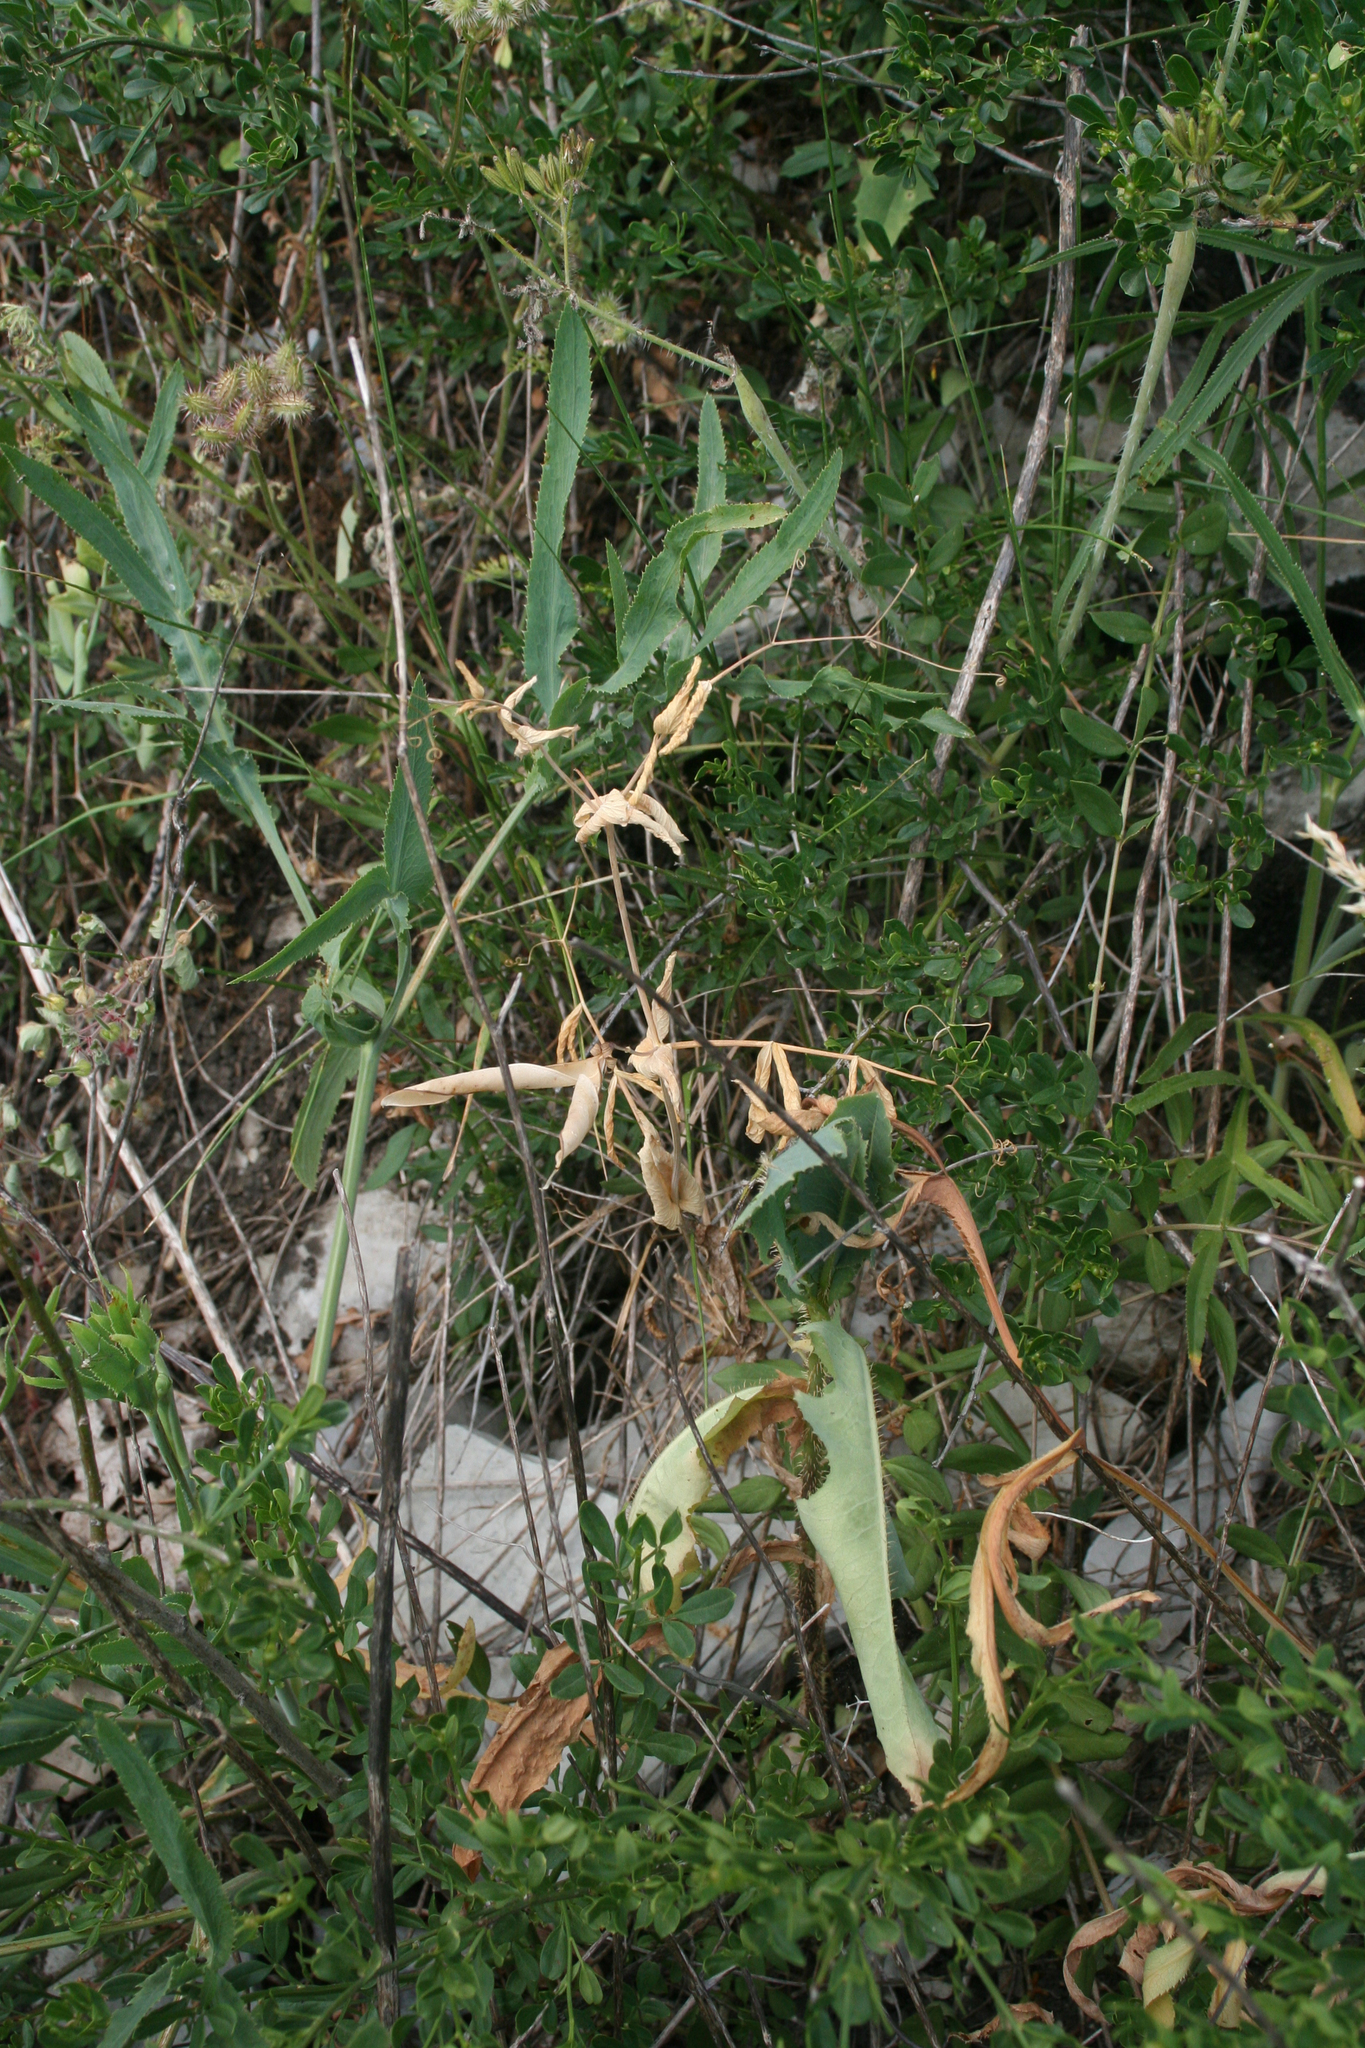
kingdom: Plantae
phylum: Tracheophyta
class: Magnoliopsida
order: Lamiales
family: Oleaceae
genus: Chrysojasminum
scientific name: Chrysojasminum fruticans
